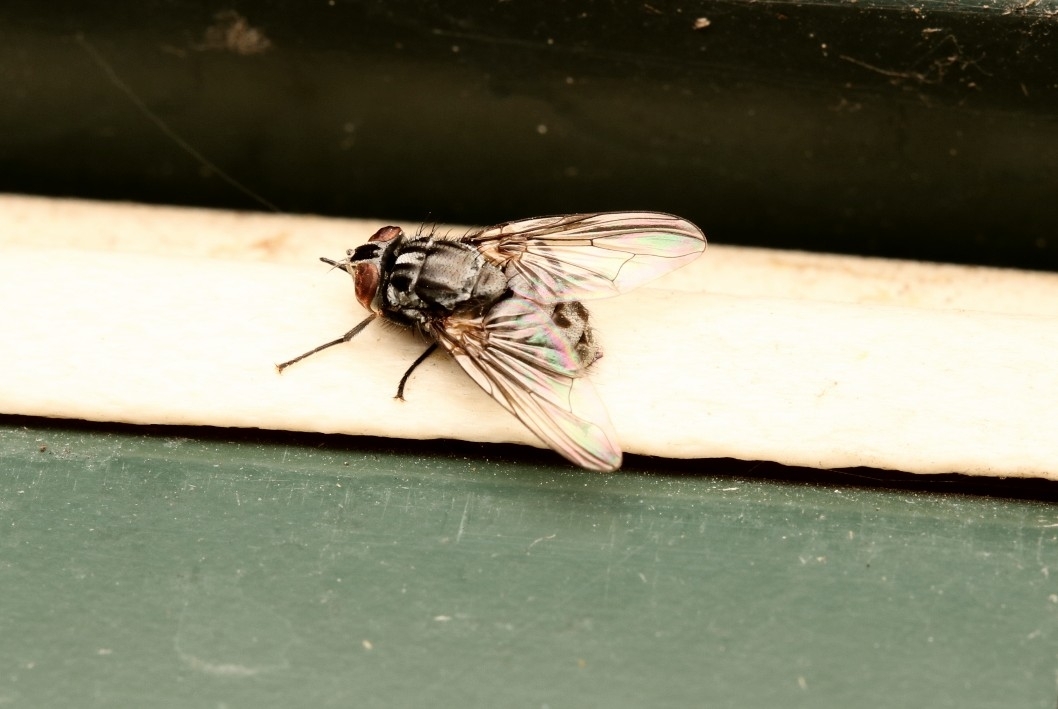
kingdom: Animalia
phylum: Arthropoda
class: Insecta
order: Diptera
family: Muscidae
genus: Stomoxys
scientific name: Stomoxys calcitrans
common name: Stable fly
